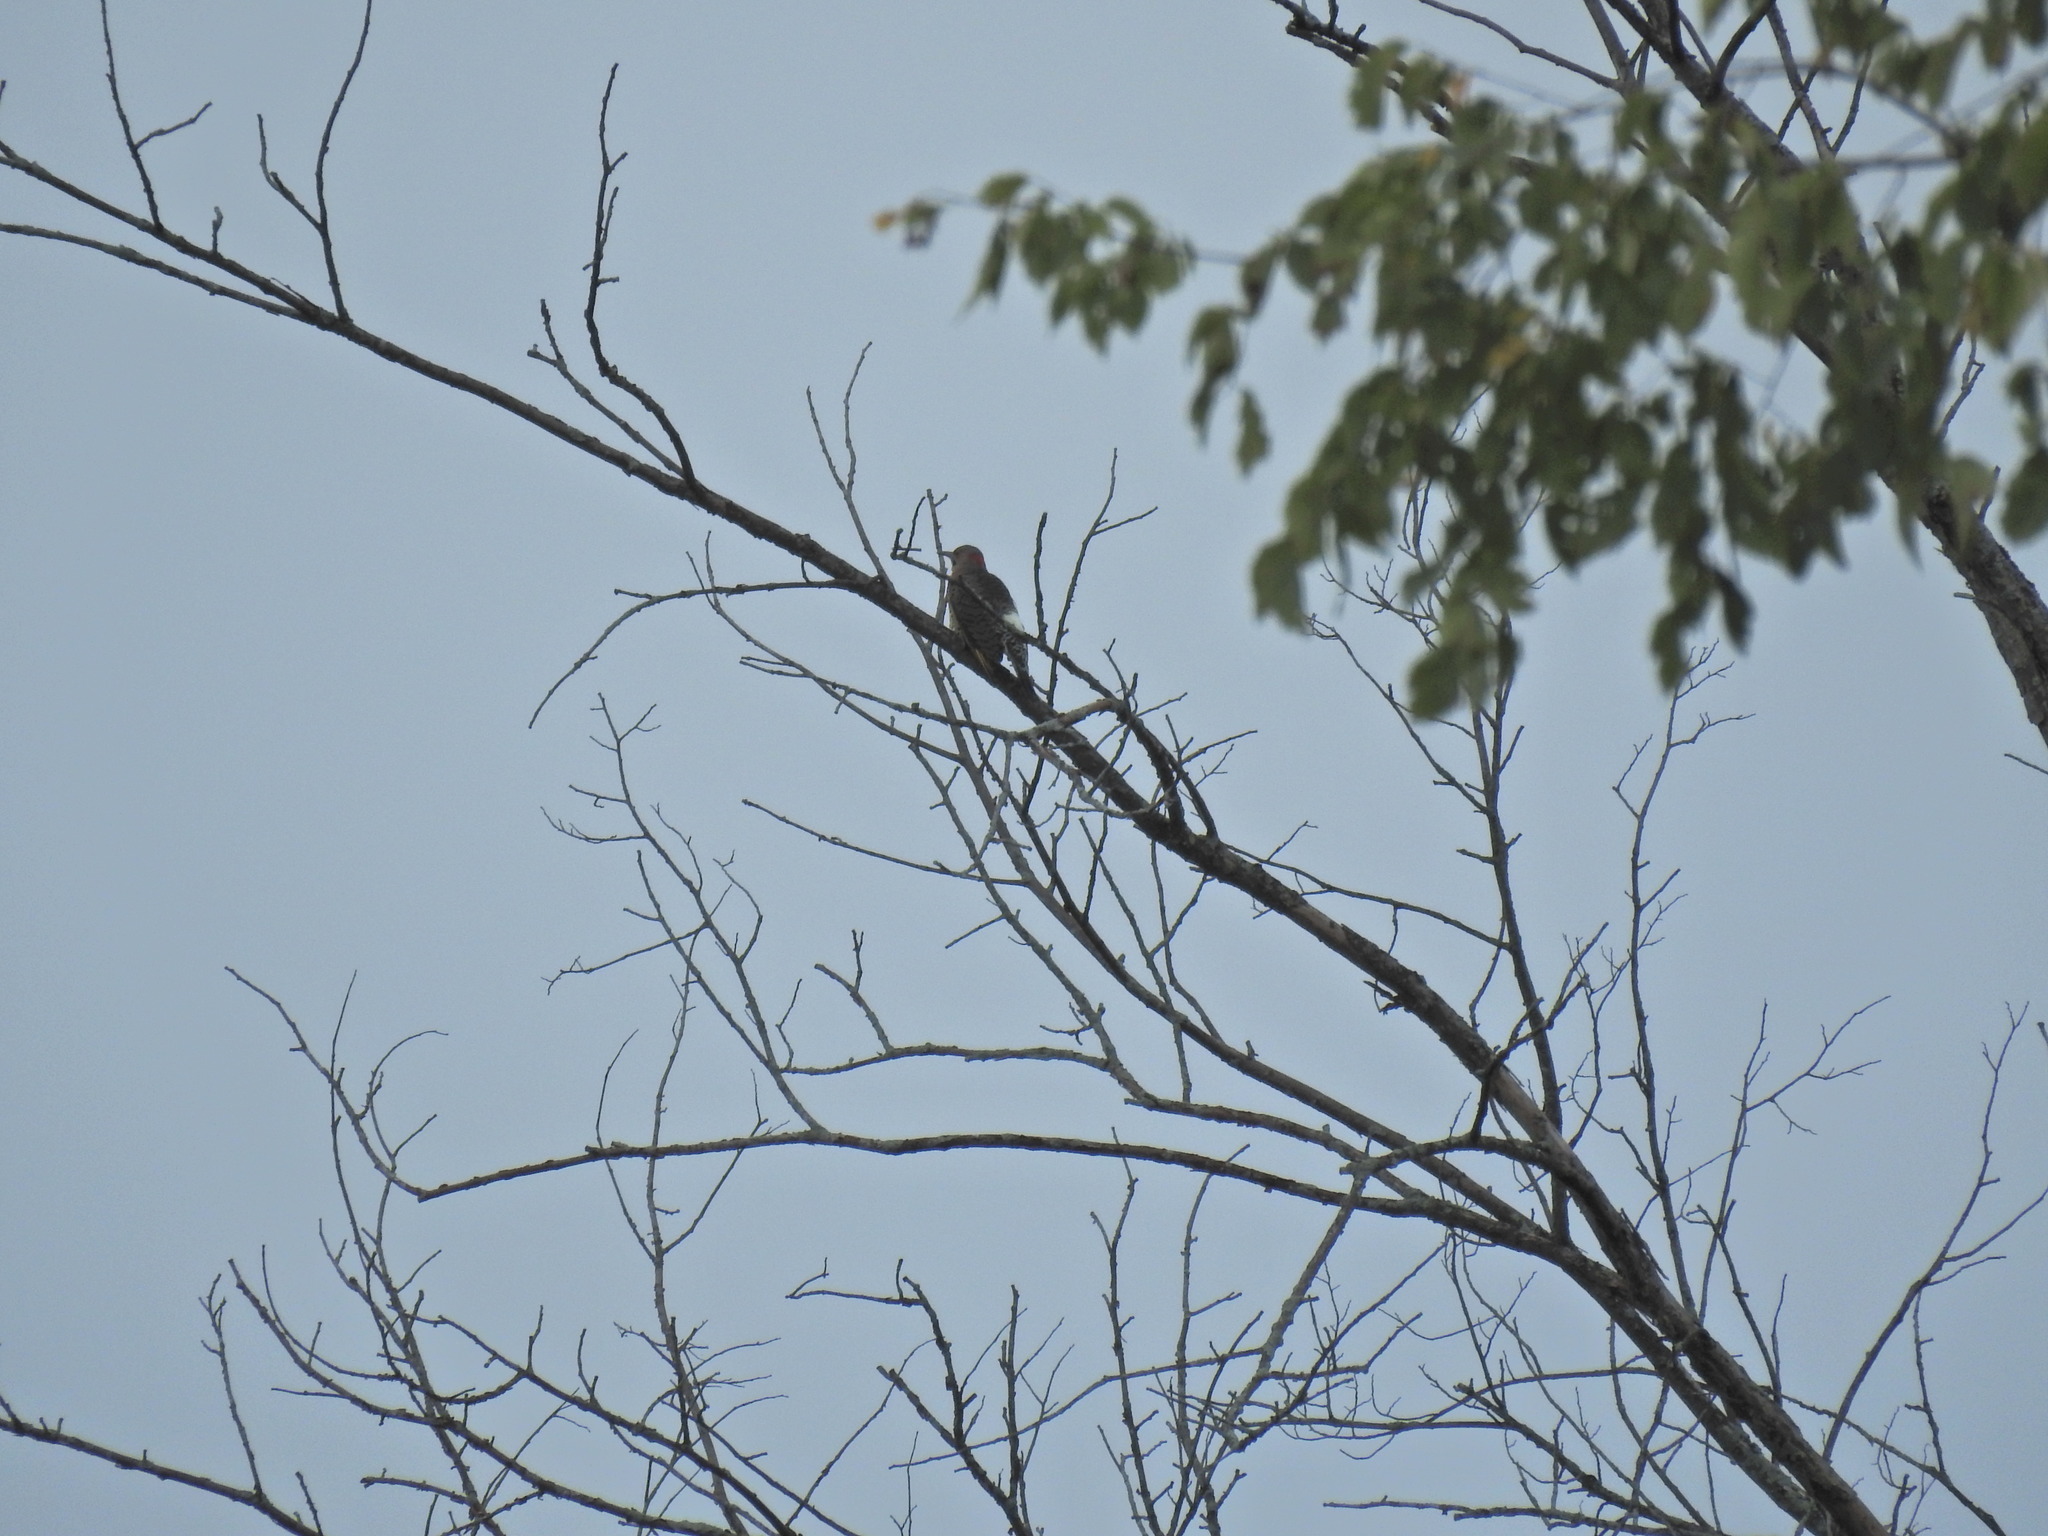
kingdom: Animalia
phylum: Chordata
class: Aves
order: Piciformes
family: Picidae
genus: Colaptes
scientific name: Colaptes auratus
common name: Northern flicker
